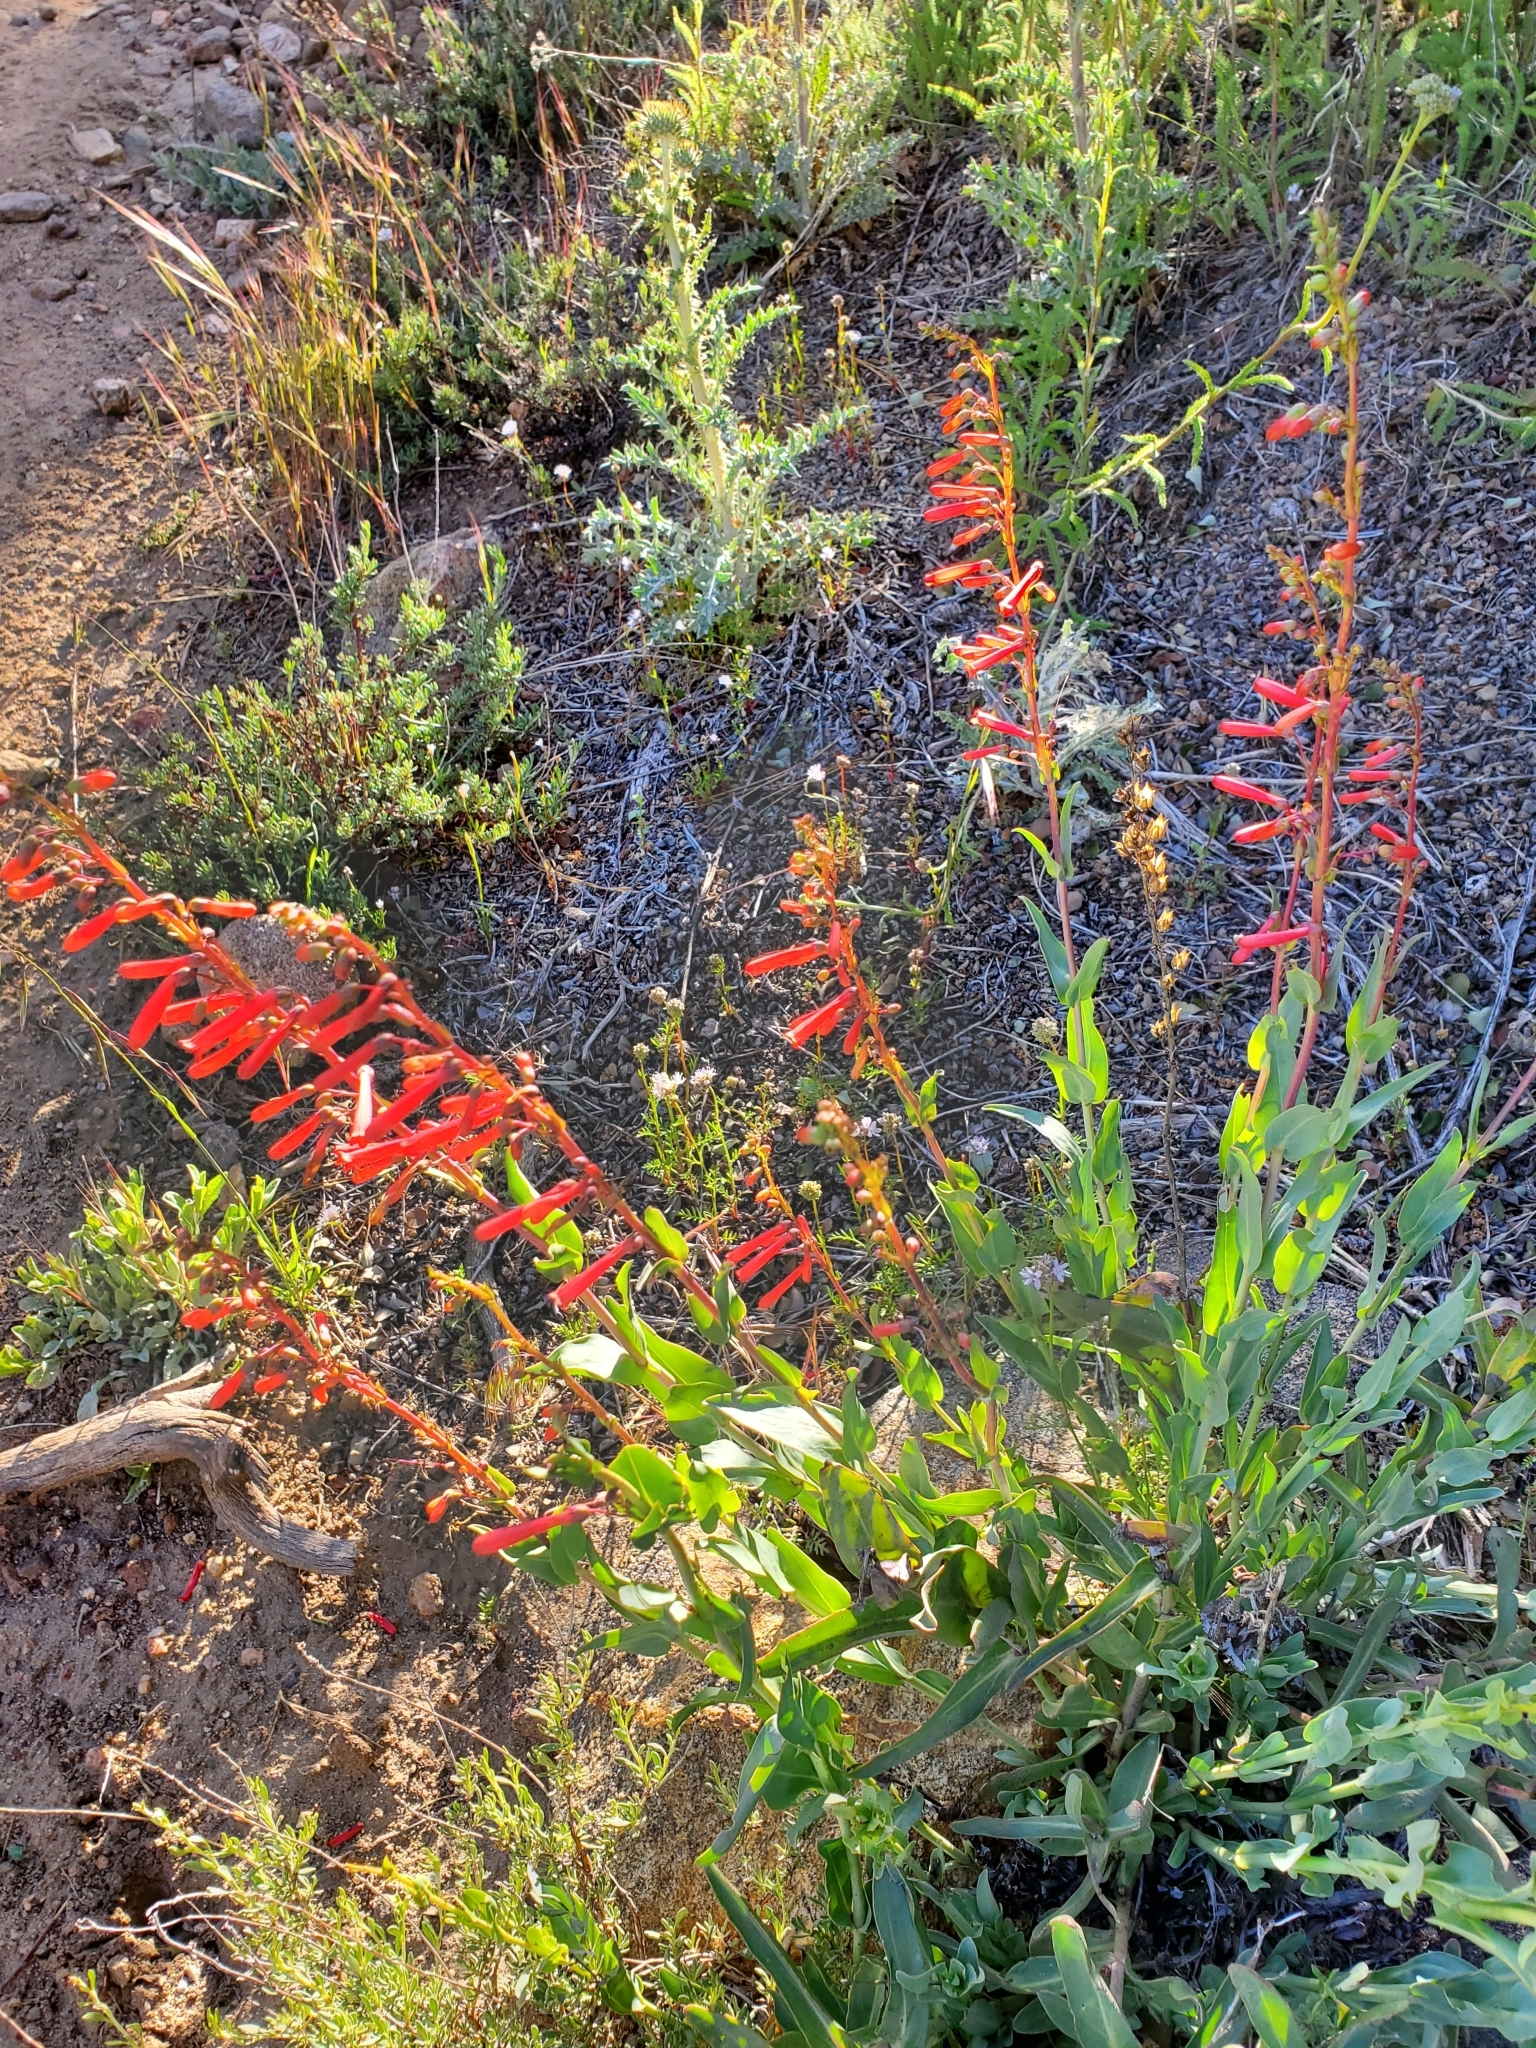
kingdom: Plantae
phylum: Tracheophyta
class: Magnoliopsida
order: Lamiales
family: Plantaginaceae
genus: Penstemon
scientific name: Penstemon centranthifolius
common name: Scarlet bugler
